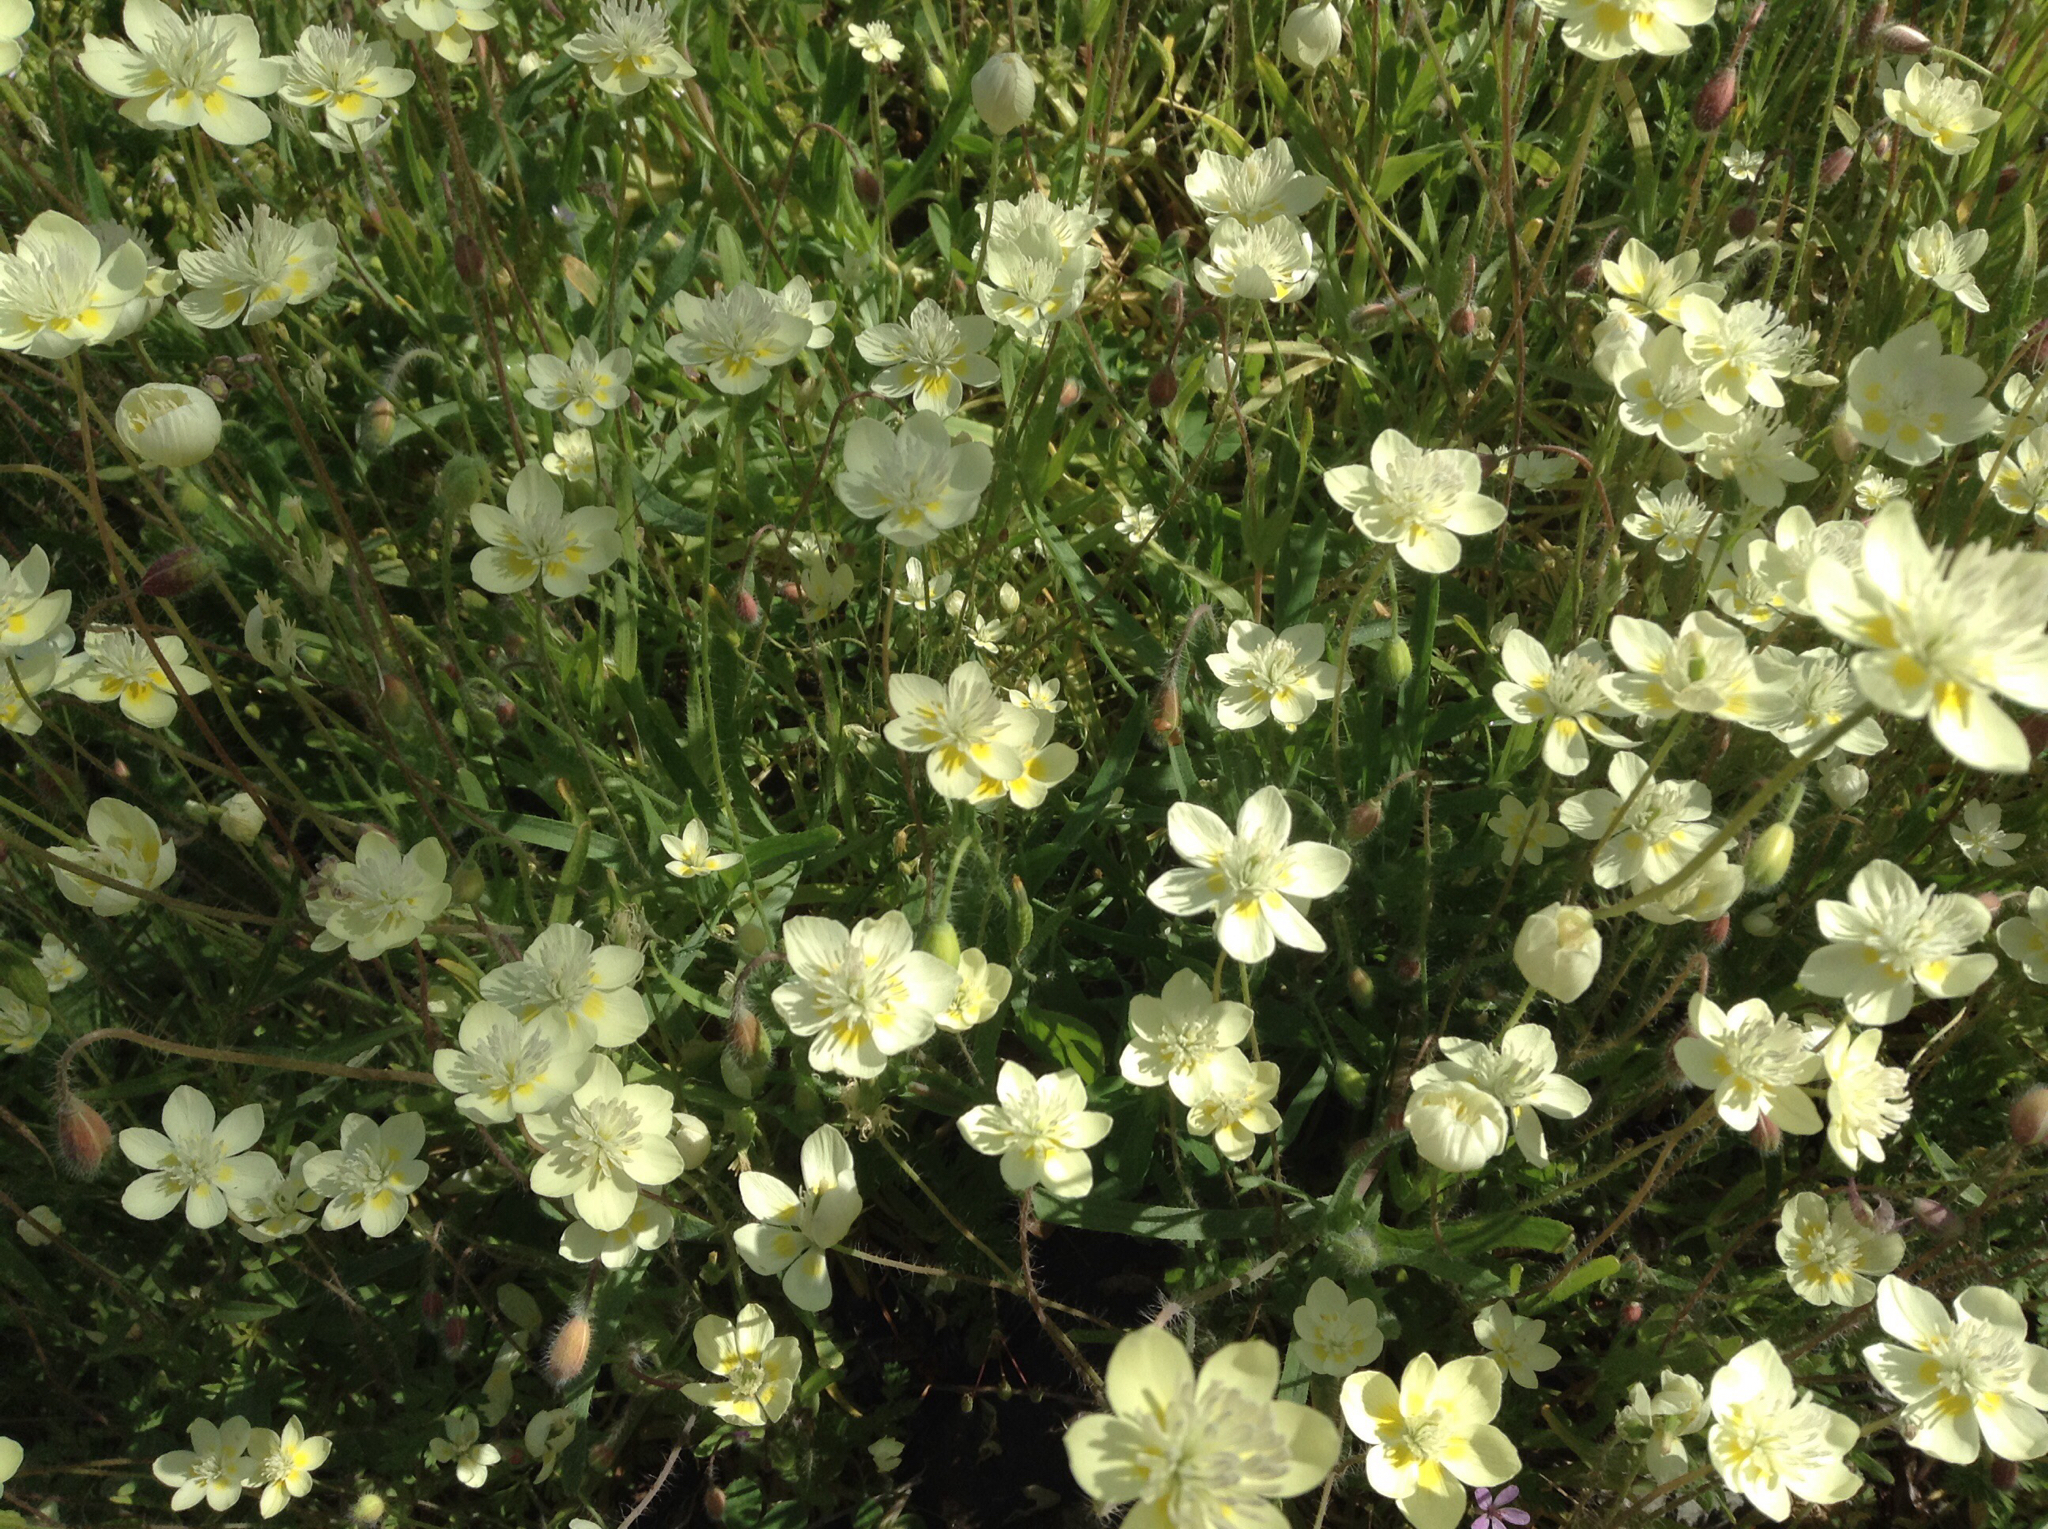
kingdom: Plantae
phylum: Tracheophyta
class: Magnoliopsida
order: Ranunculales
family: Papaveraceae
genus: Platystemon
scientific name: Platystemon californicus
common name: Cream-cups
